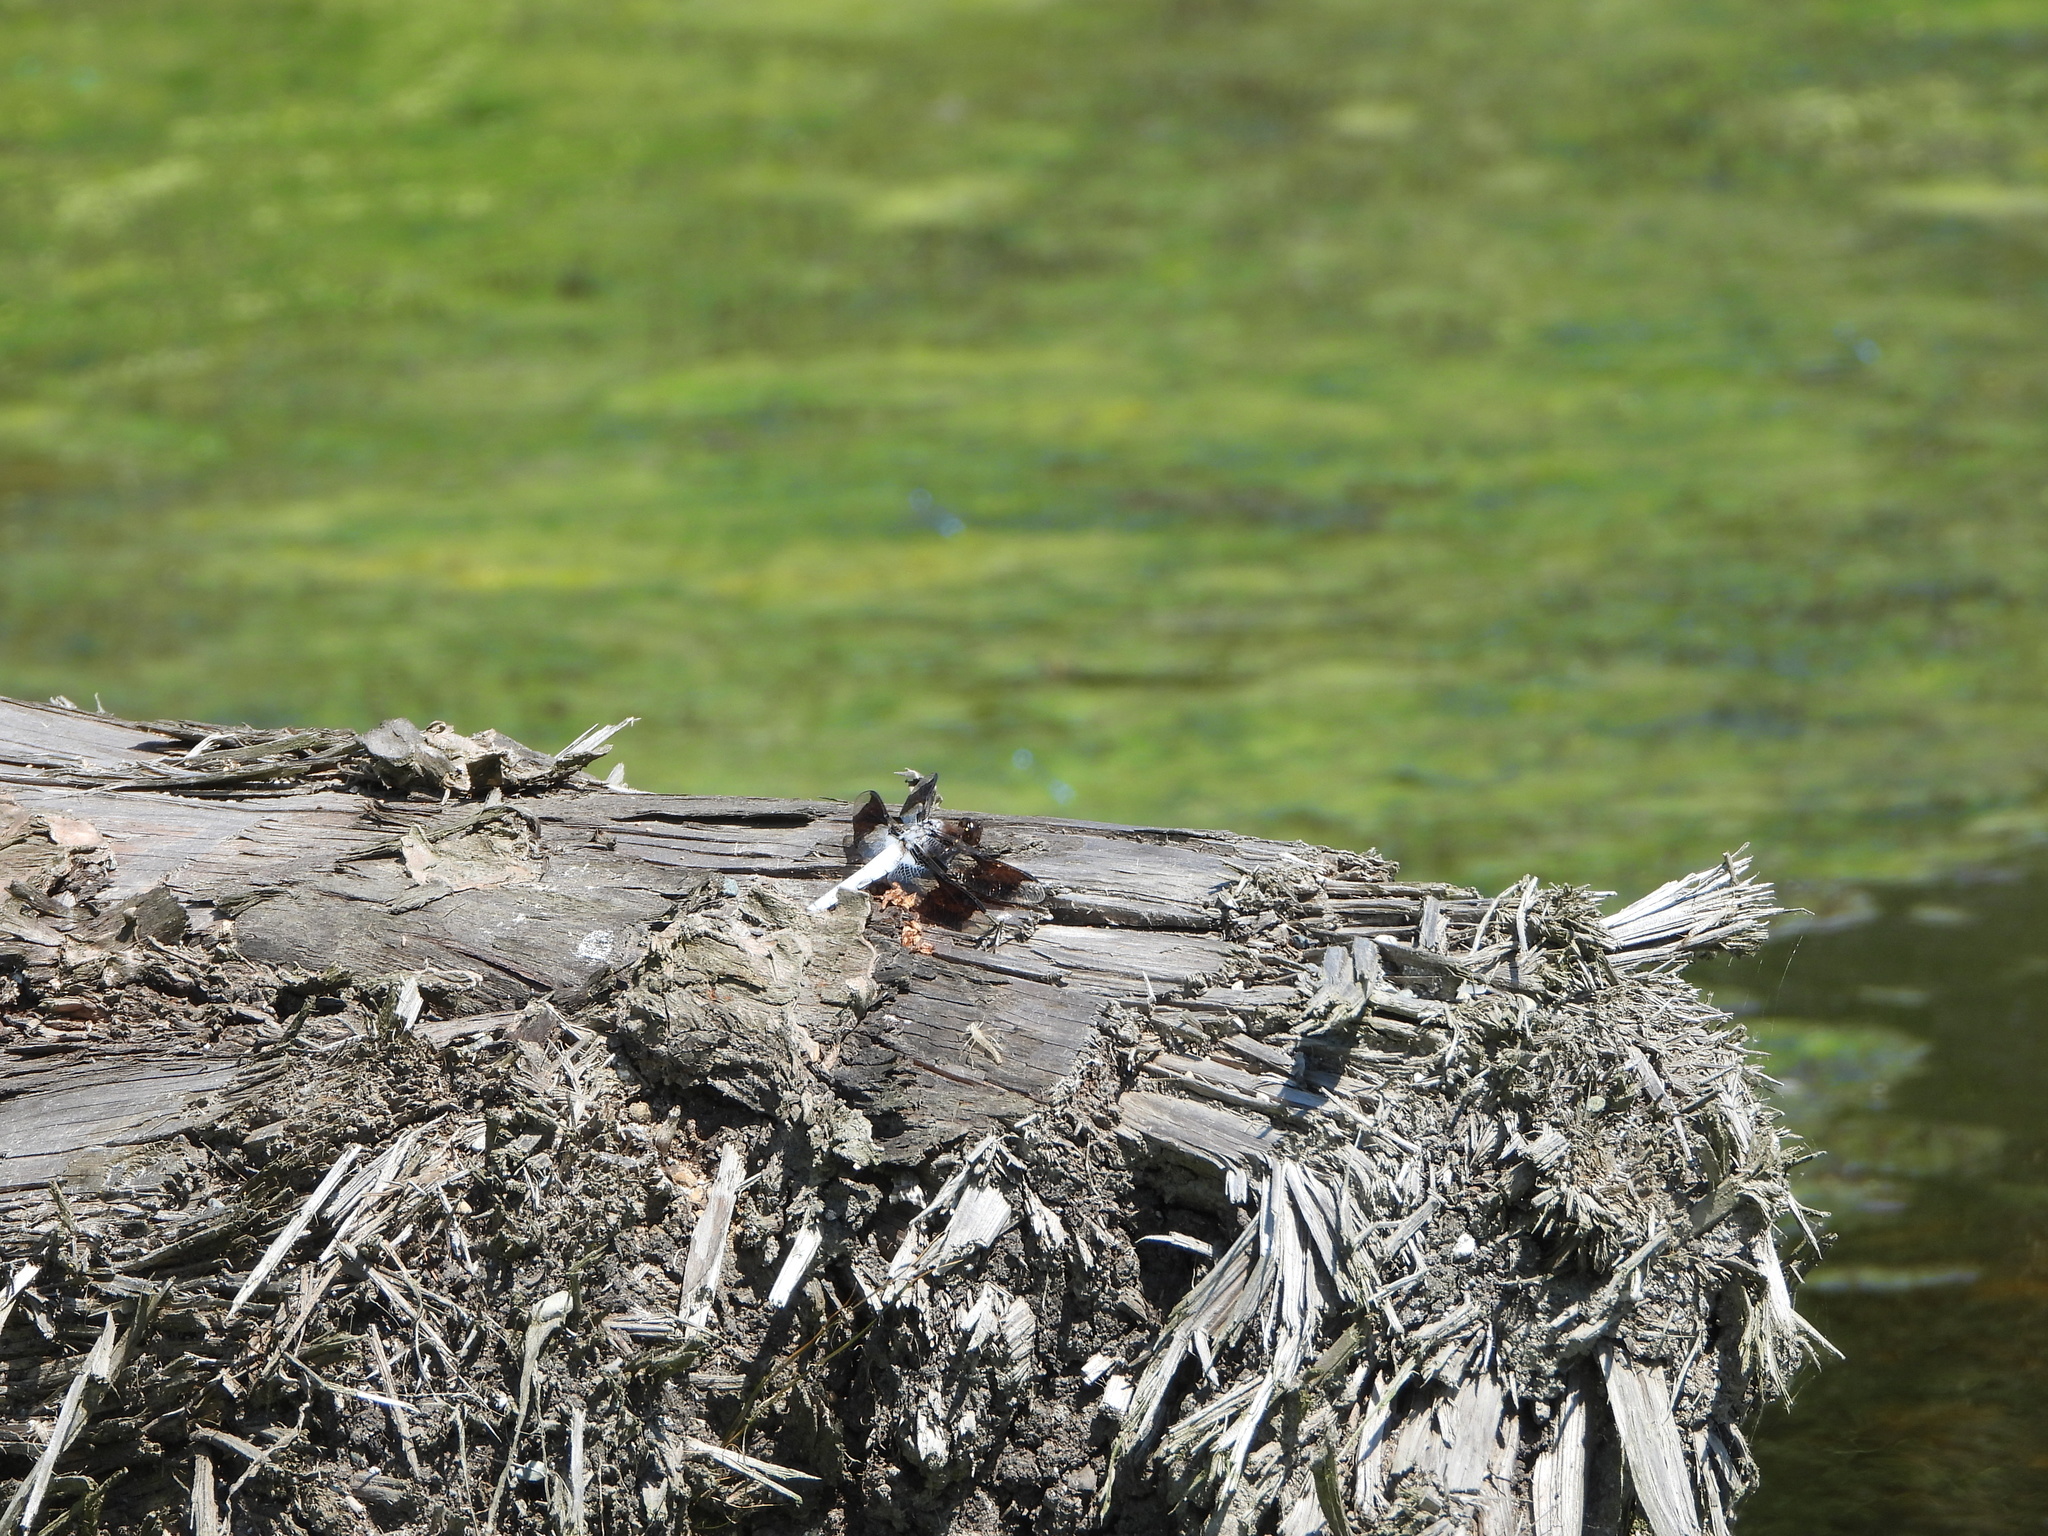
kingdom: Animalia
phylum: Arthropoda
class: Insecta
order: Odonata
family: Libellulidae
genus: Plathemis
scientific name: Plathemis lydia
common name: Common whitetail
